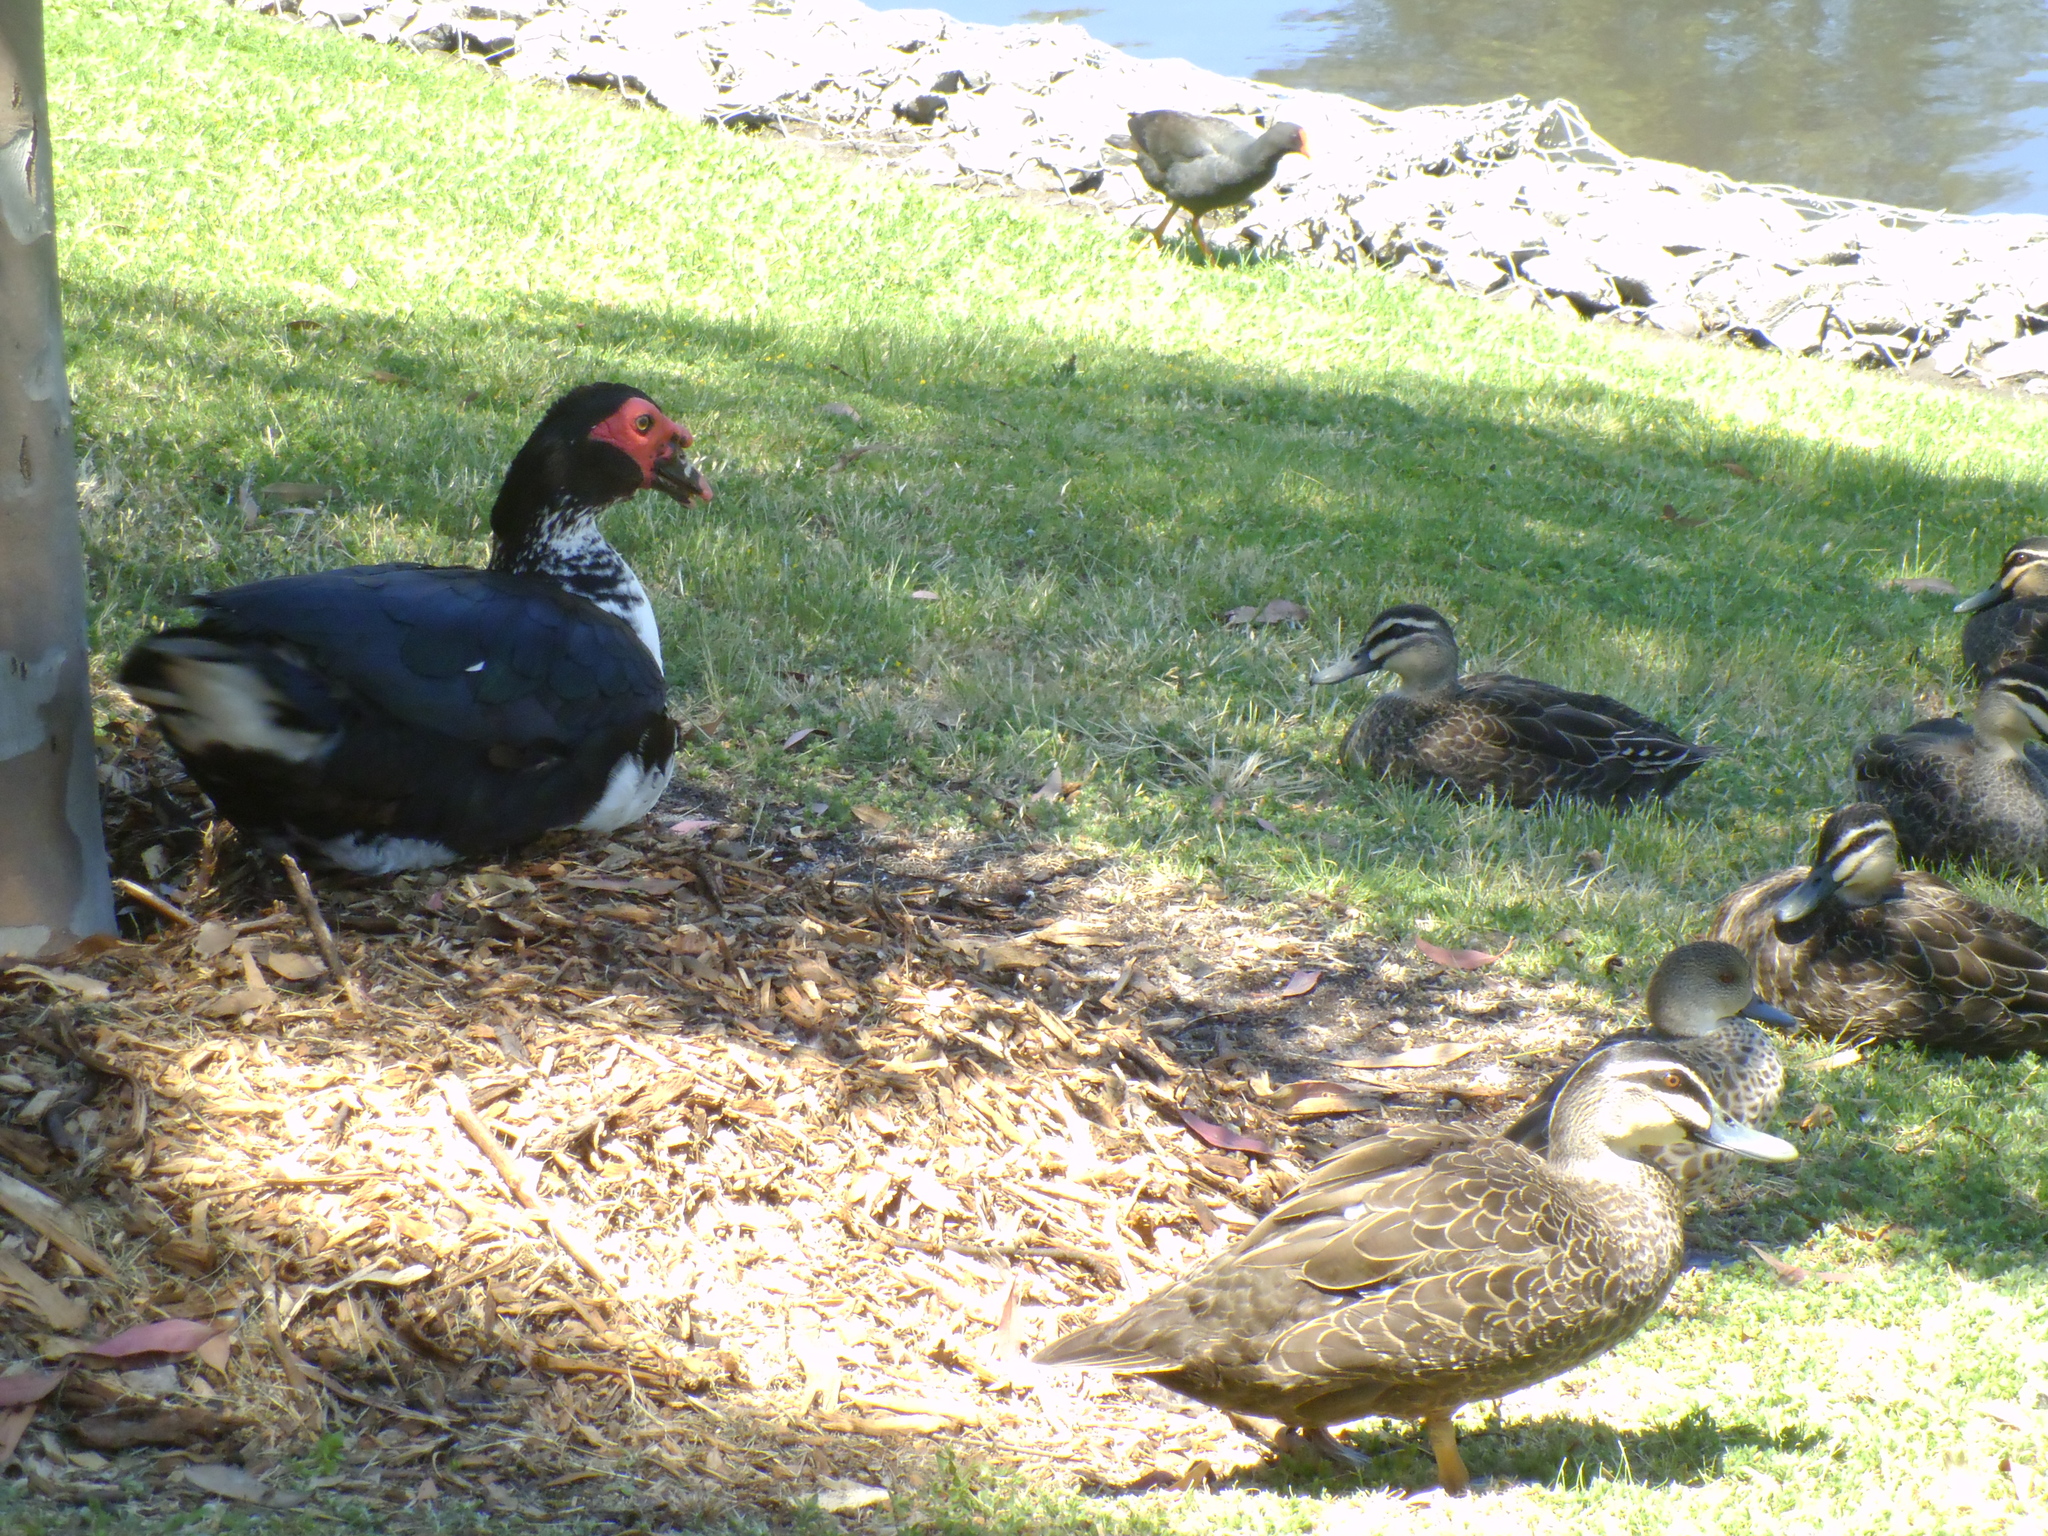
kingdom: Animalia
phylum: Chordata
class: Aves
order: Anseriformes
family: Anatidae
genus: Cairina
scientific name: Cairina moschata
